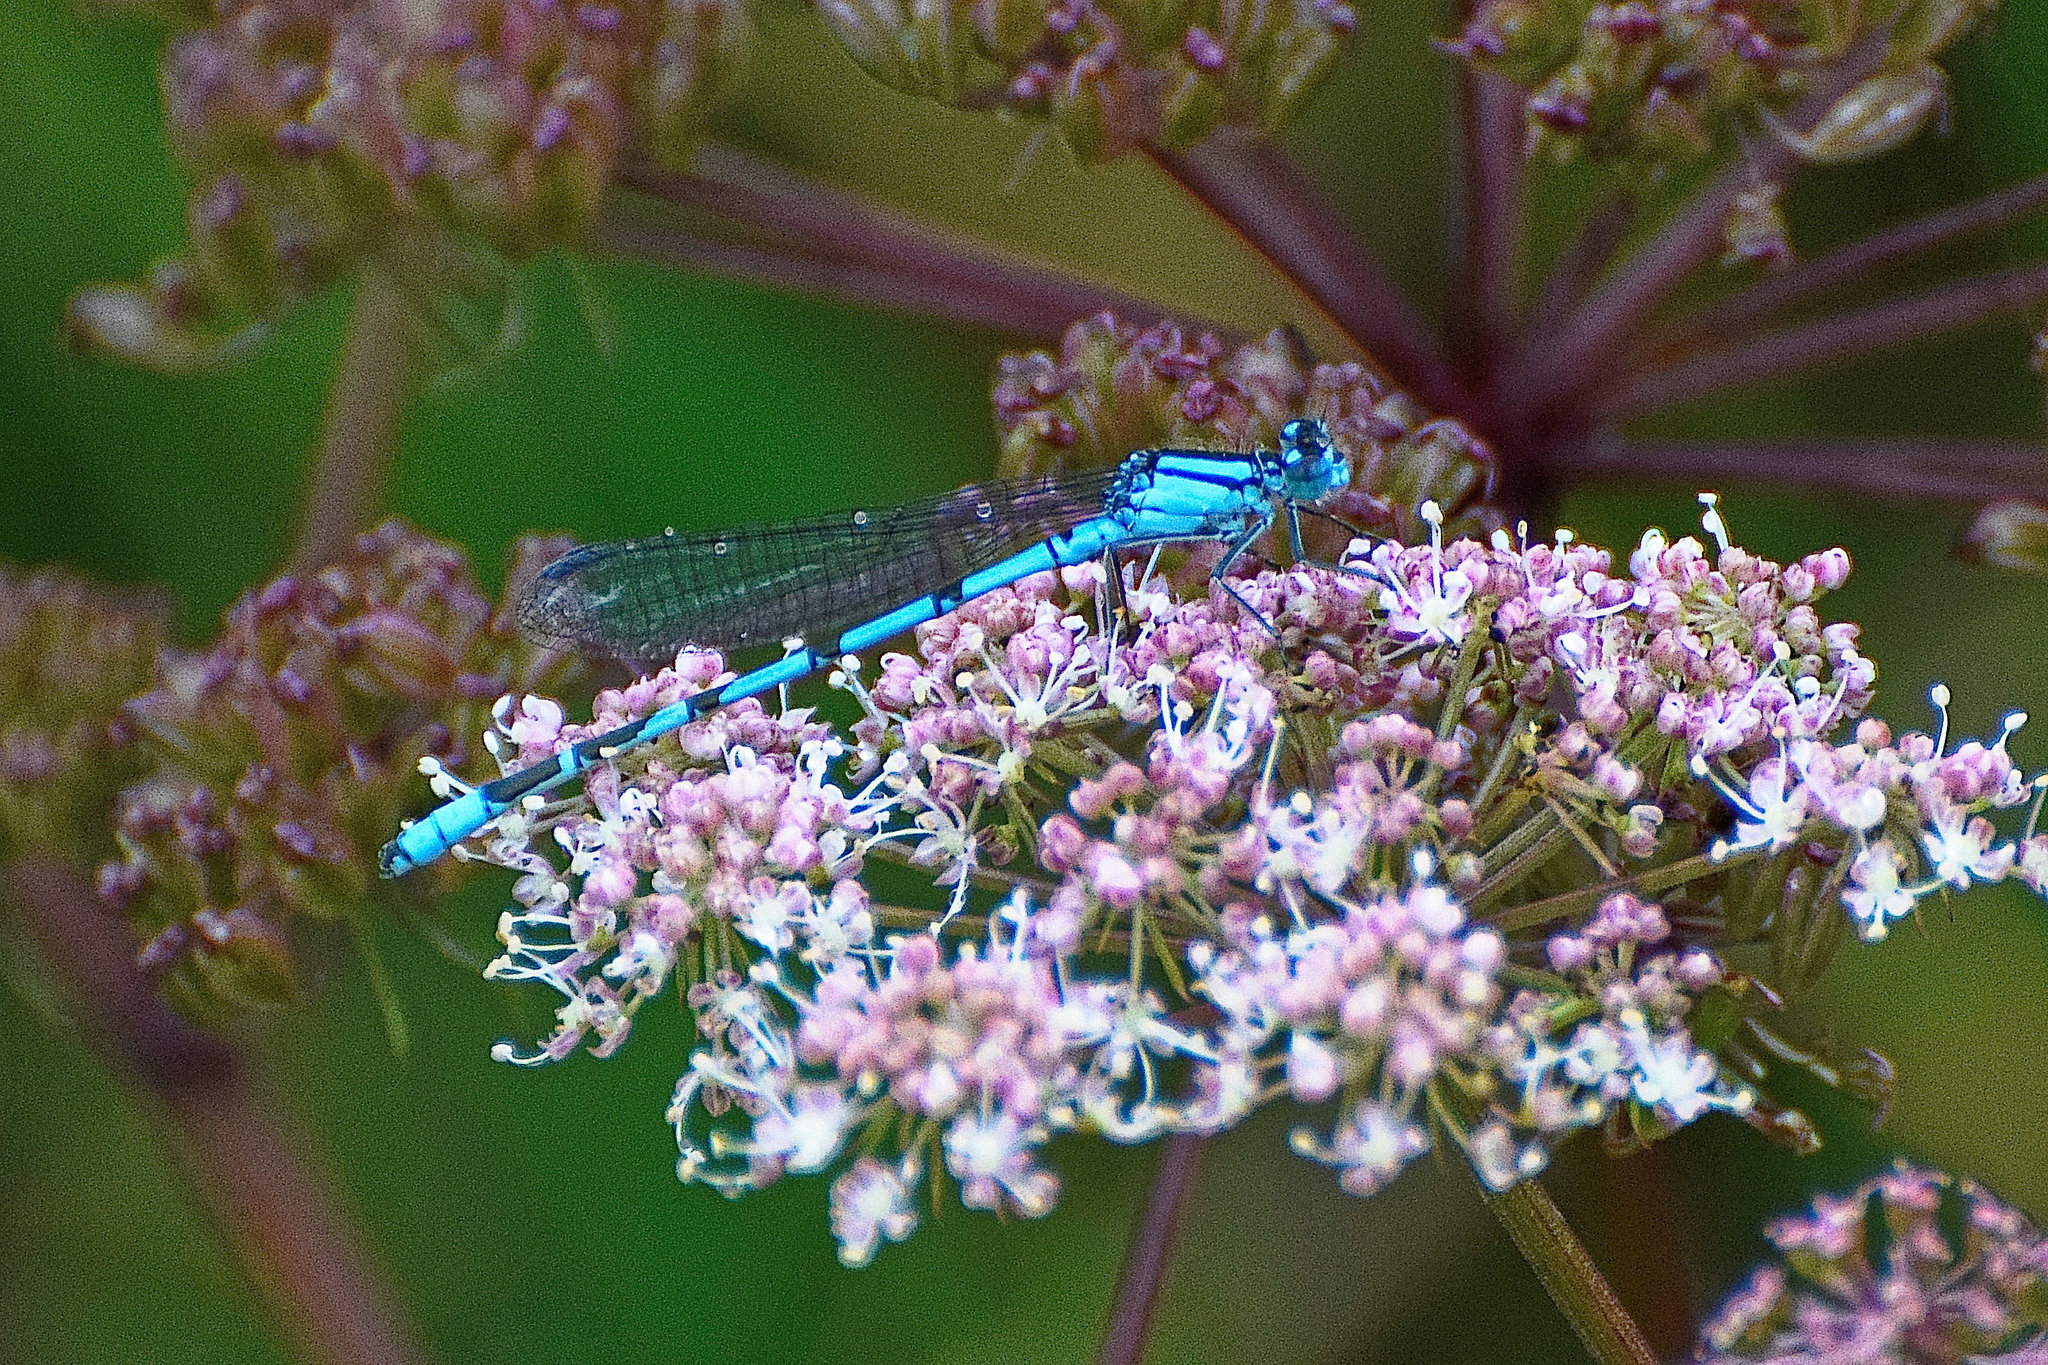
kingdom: Animalia
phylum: Arthropoda
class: Insecta
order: Odonata
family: Coenagrionidae
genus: Enallagma
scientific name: Enallagma cyathigerum
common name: Common blue damselfly
